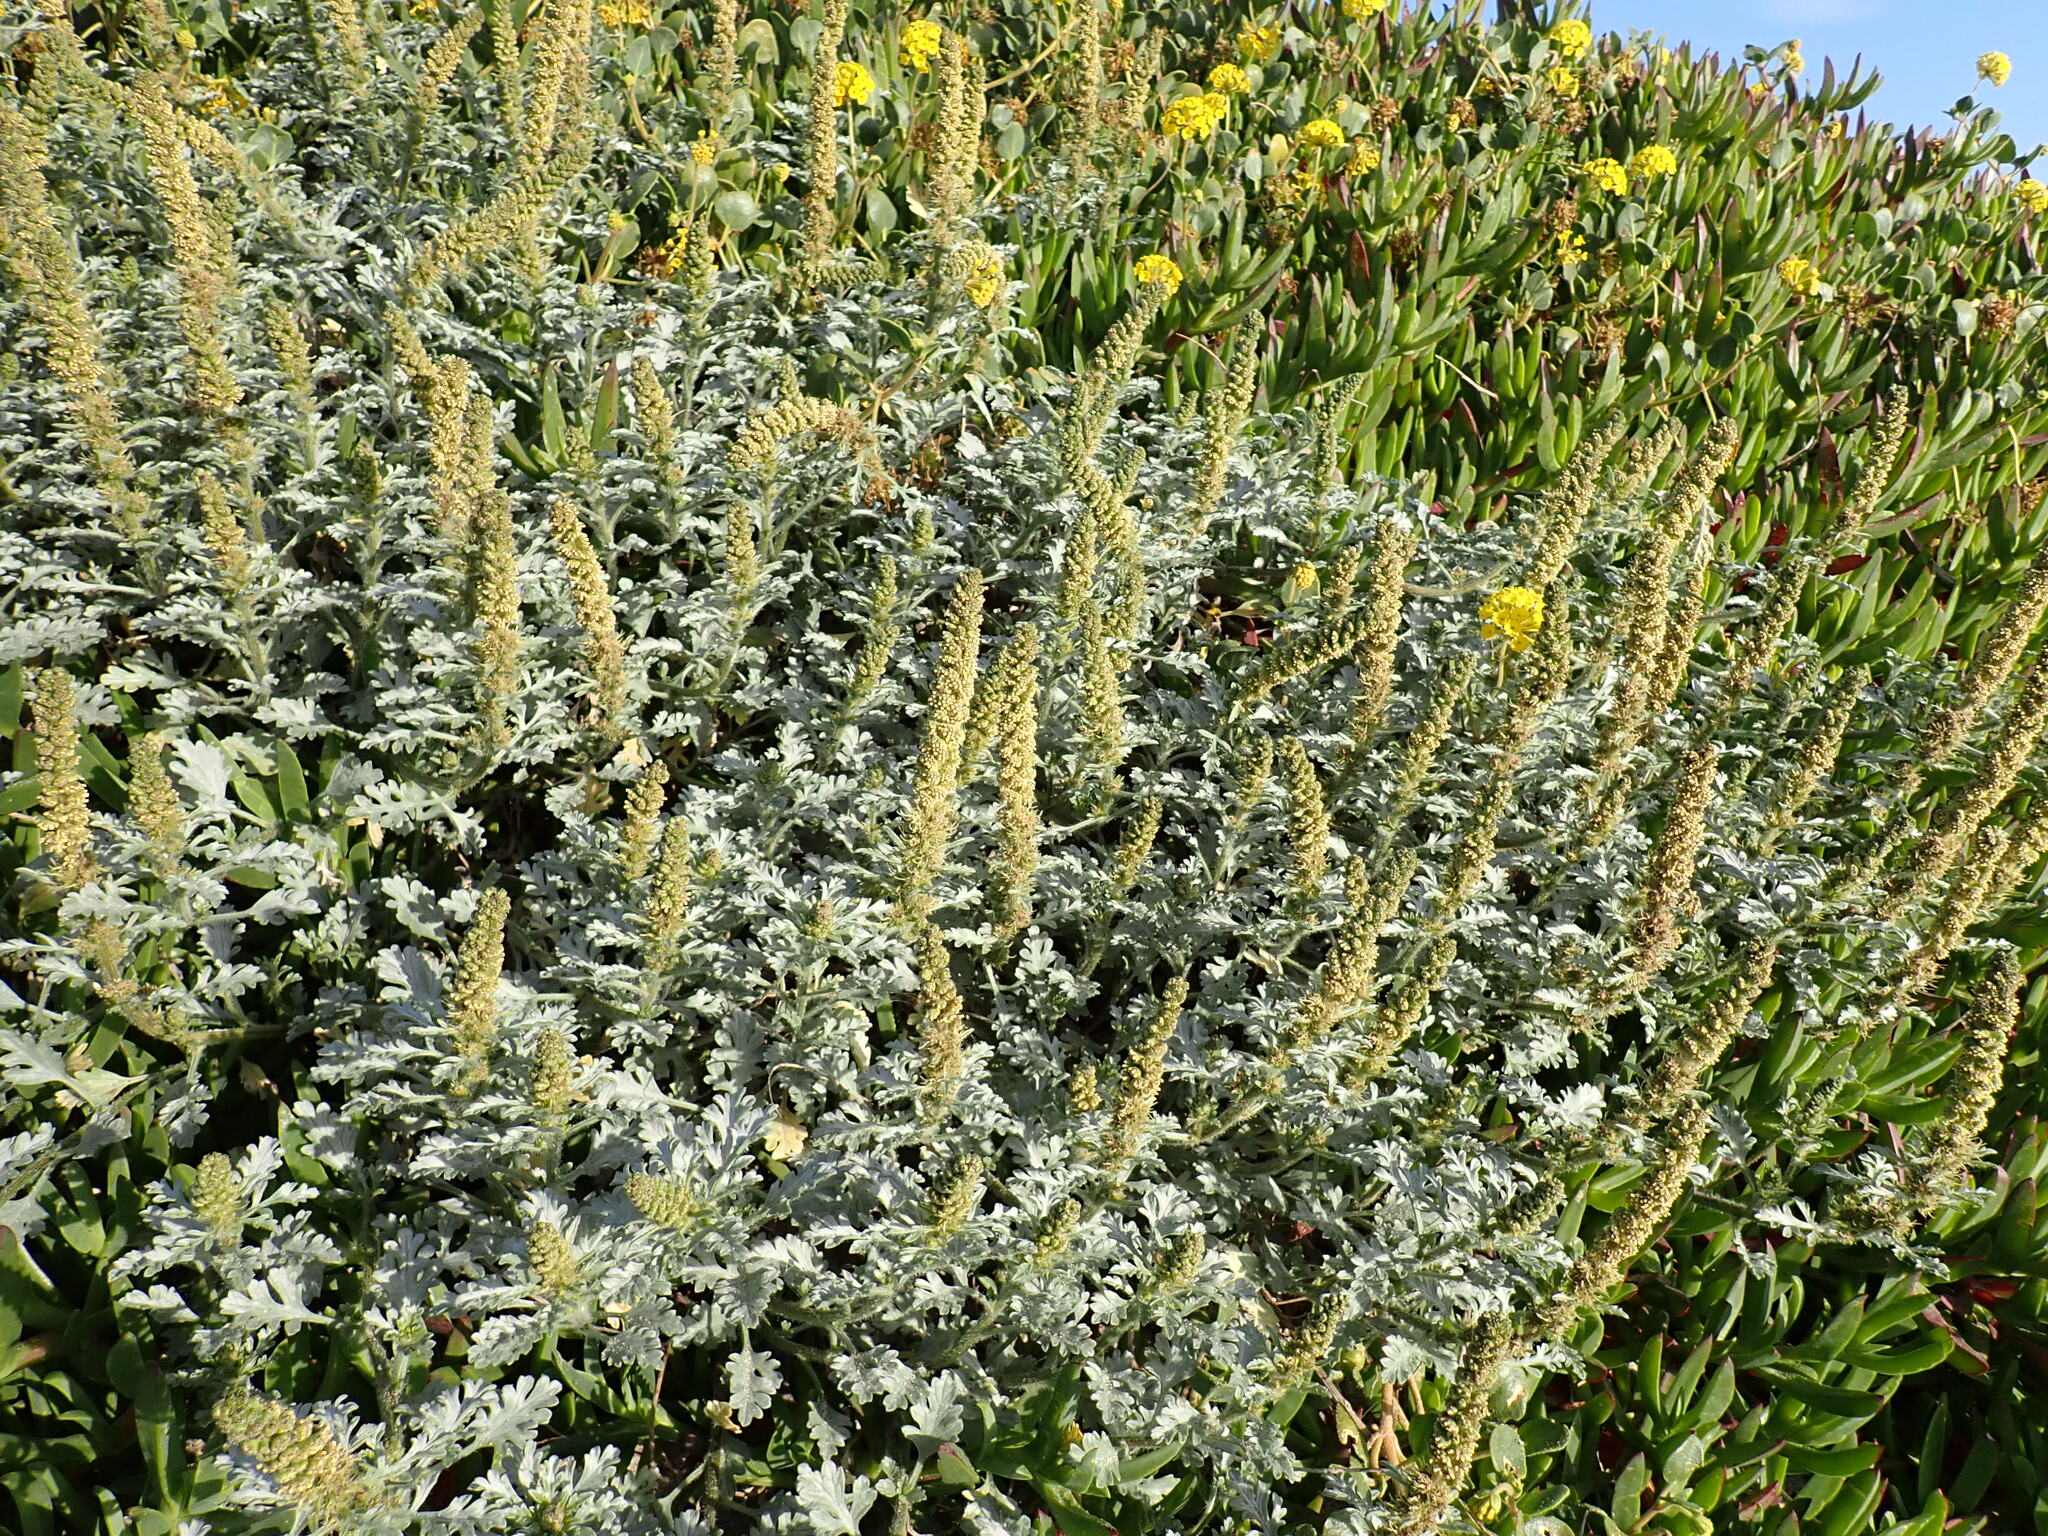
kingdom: Plantae
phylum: Tracheophyta
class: Magnoliopsida
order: Asterales
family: Asteraceae
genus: Ambrosia
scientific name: Ambrosia chamissonis
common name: Beachbur
